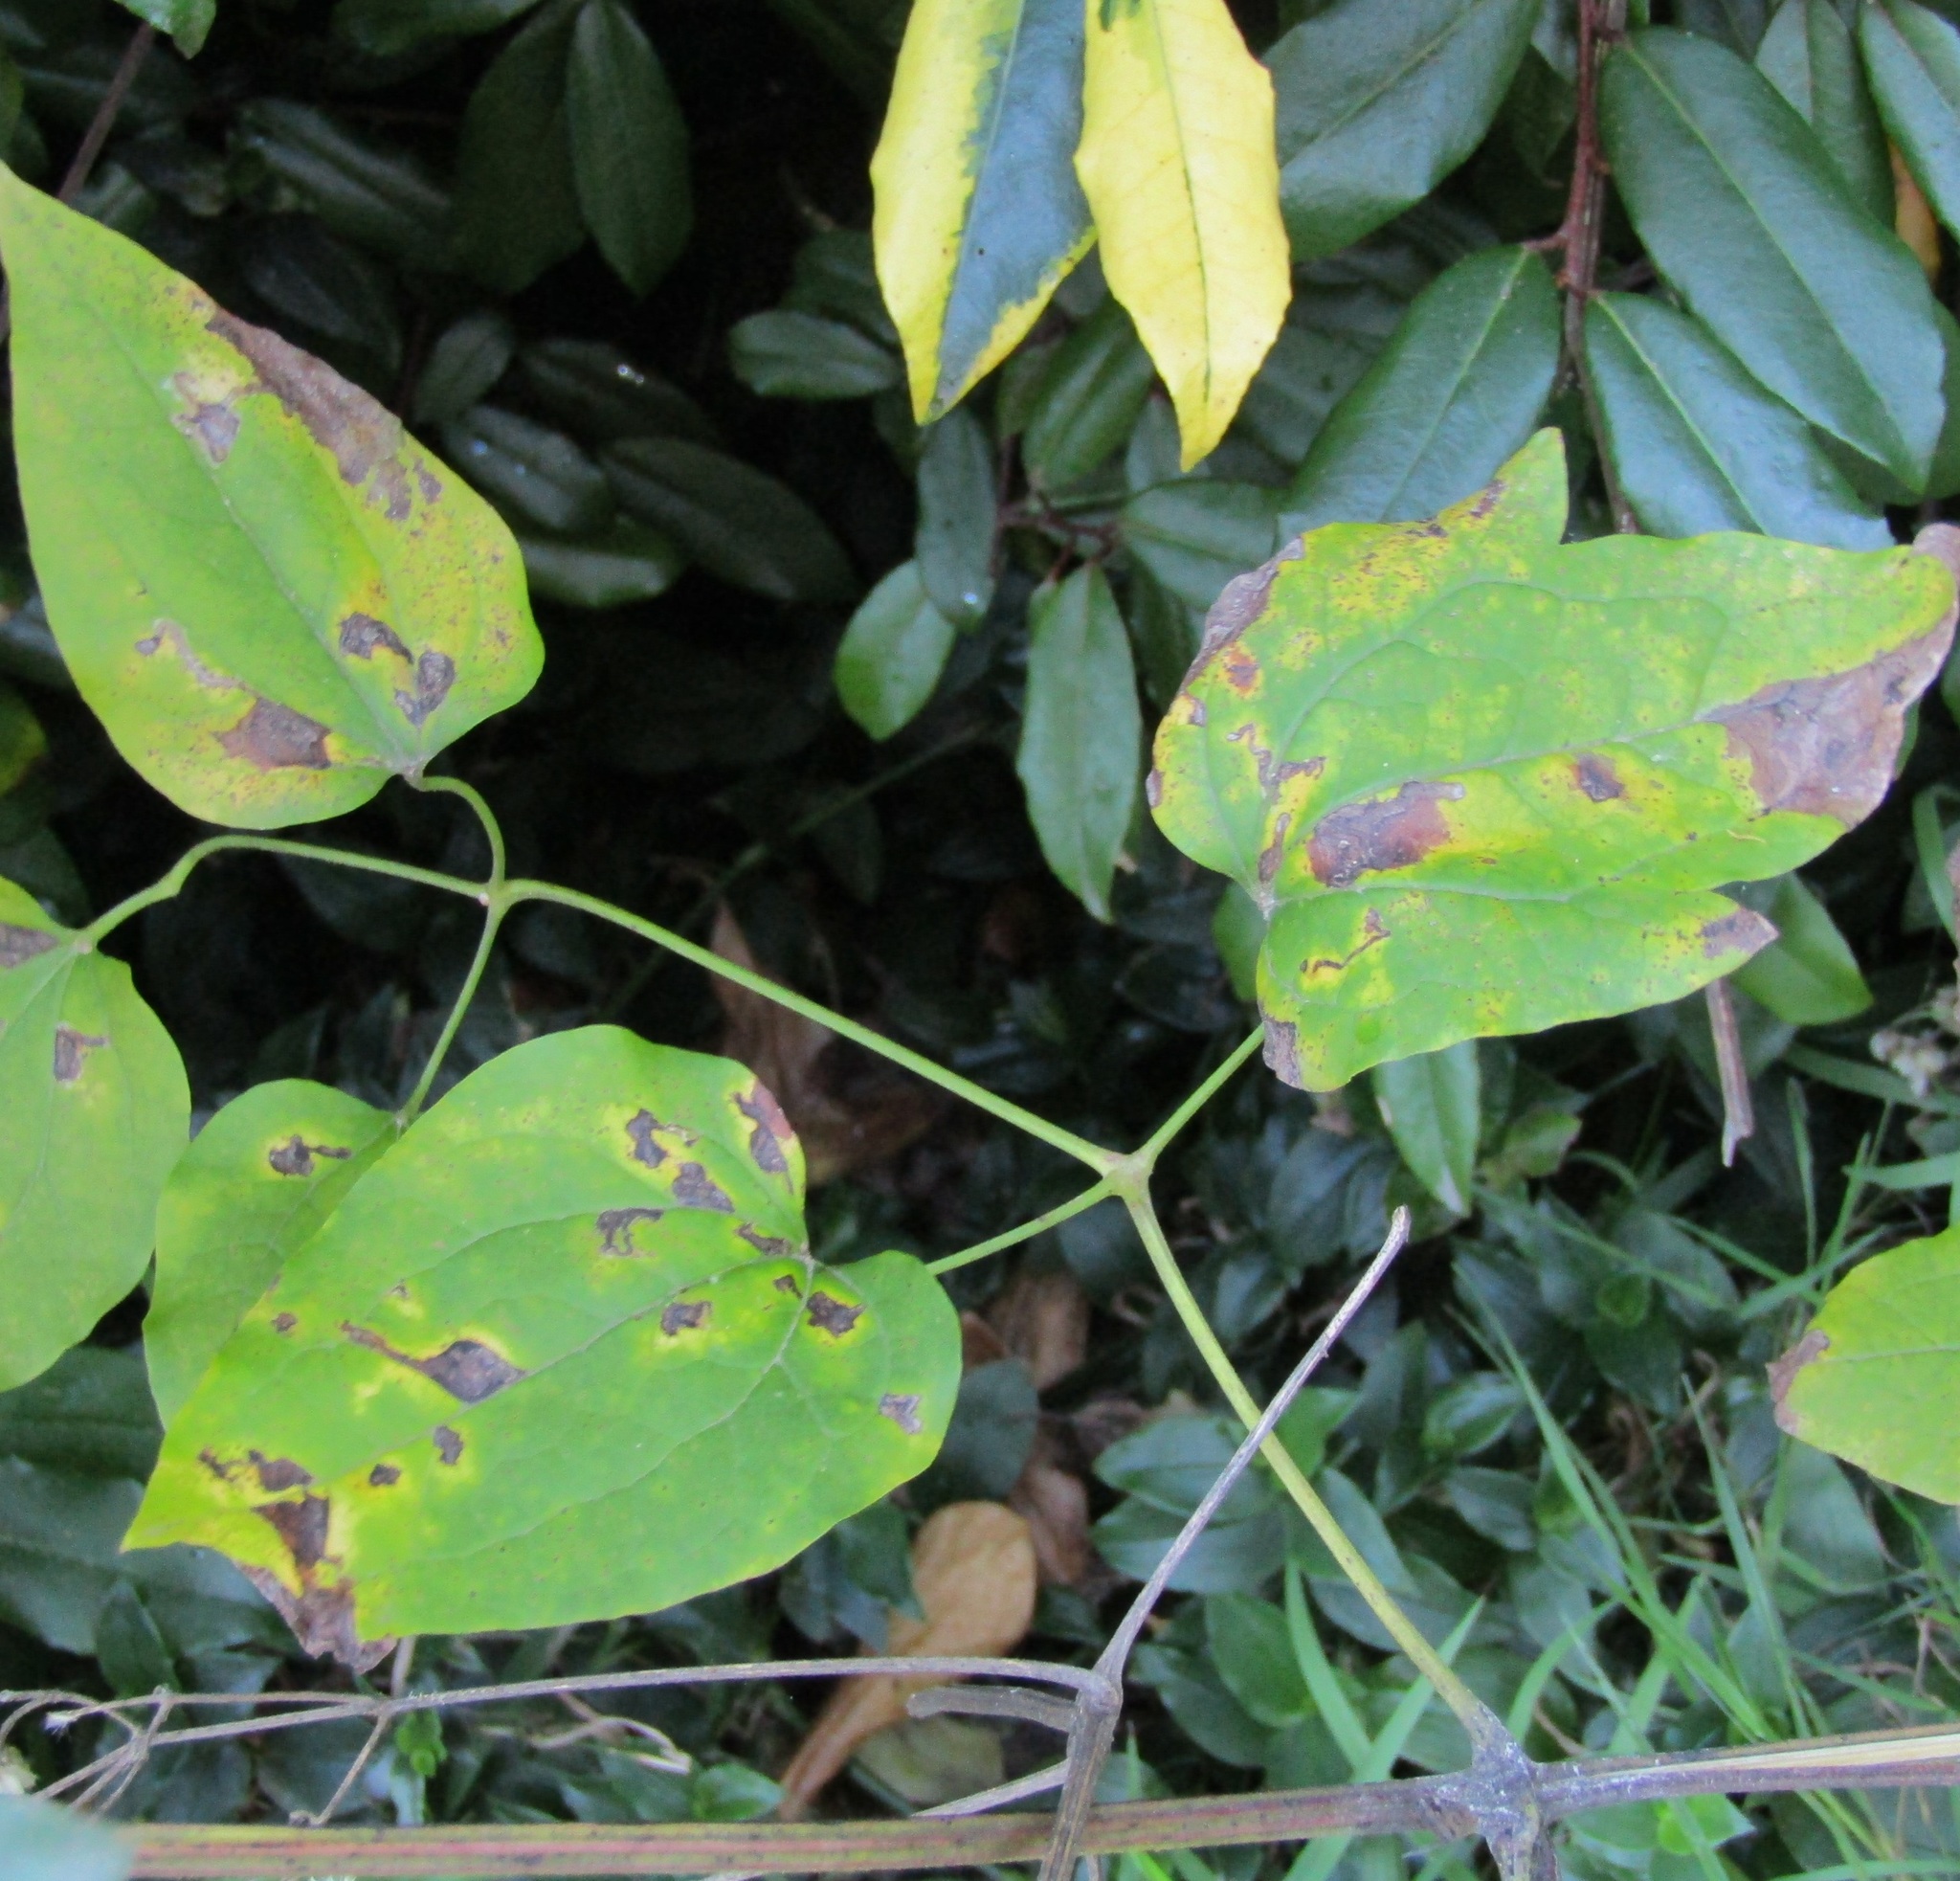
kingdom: Plantae
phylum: Tracheophyta
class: Magnoliopsida
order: Ranunculales
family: Ranunculaceae
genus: Clematis
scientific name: Clematis vitalba
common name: Evergreen clematis
